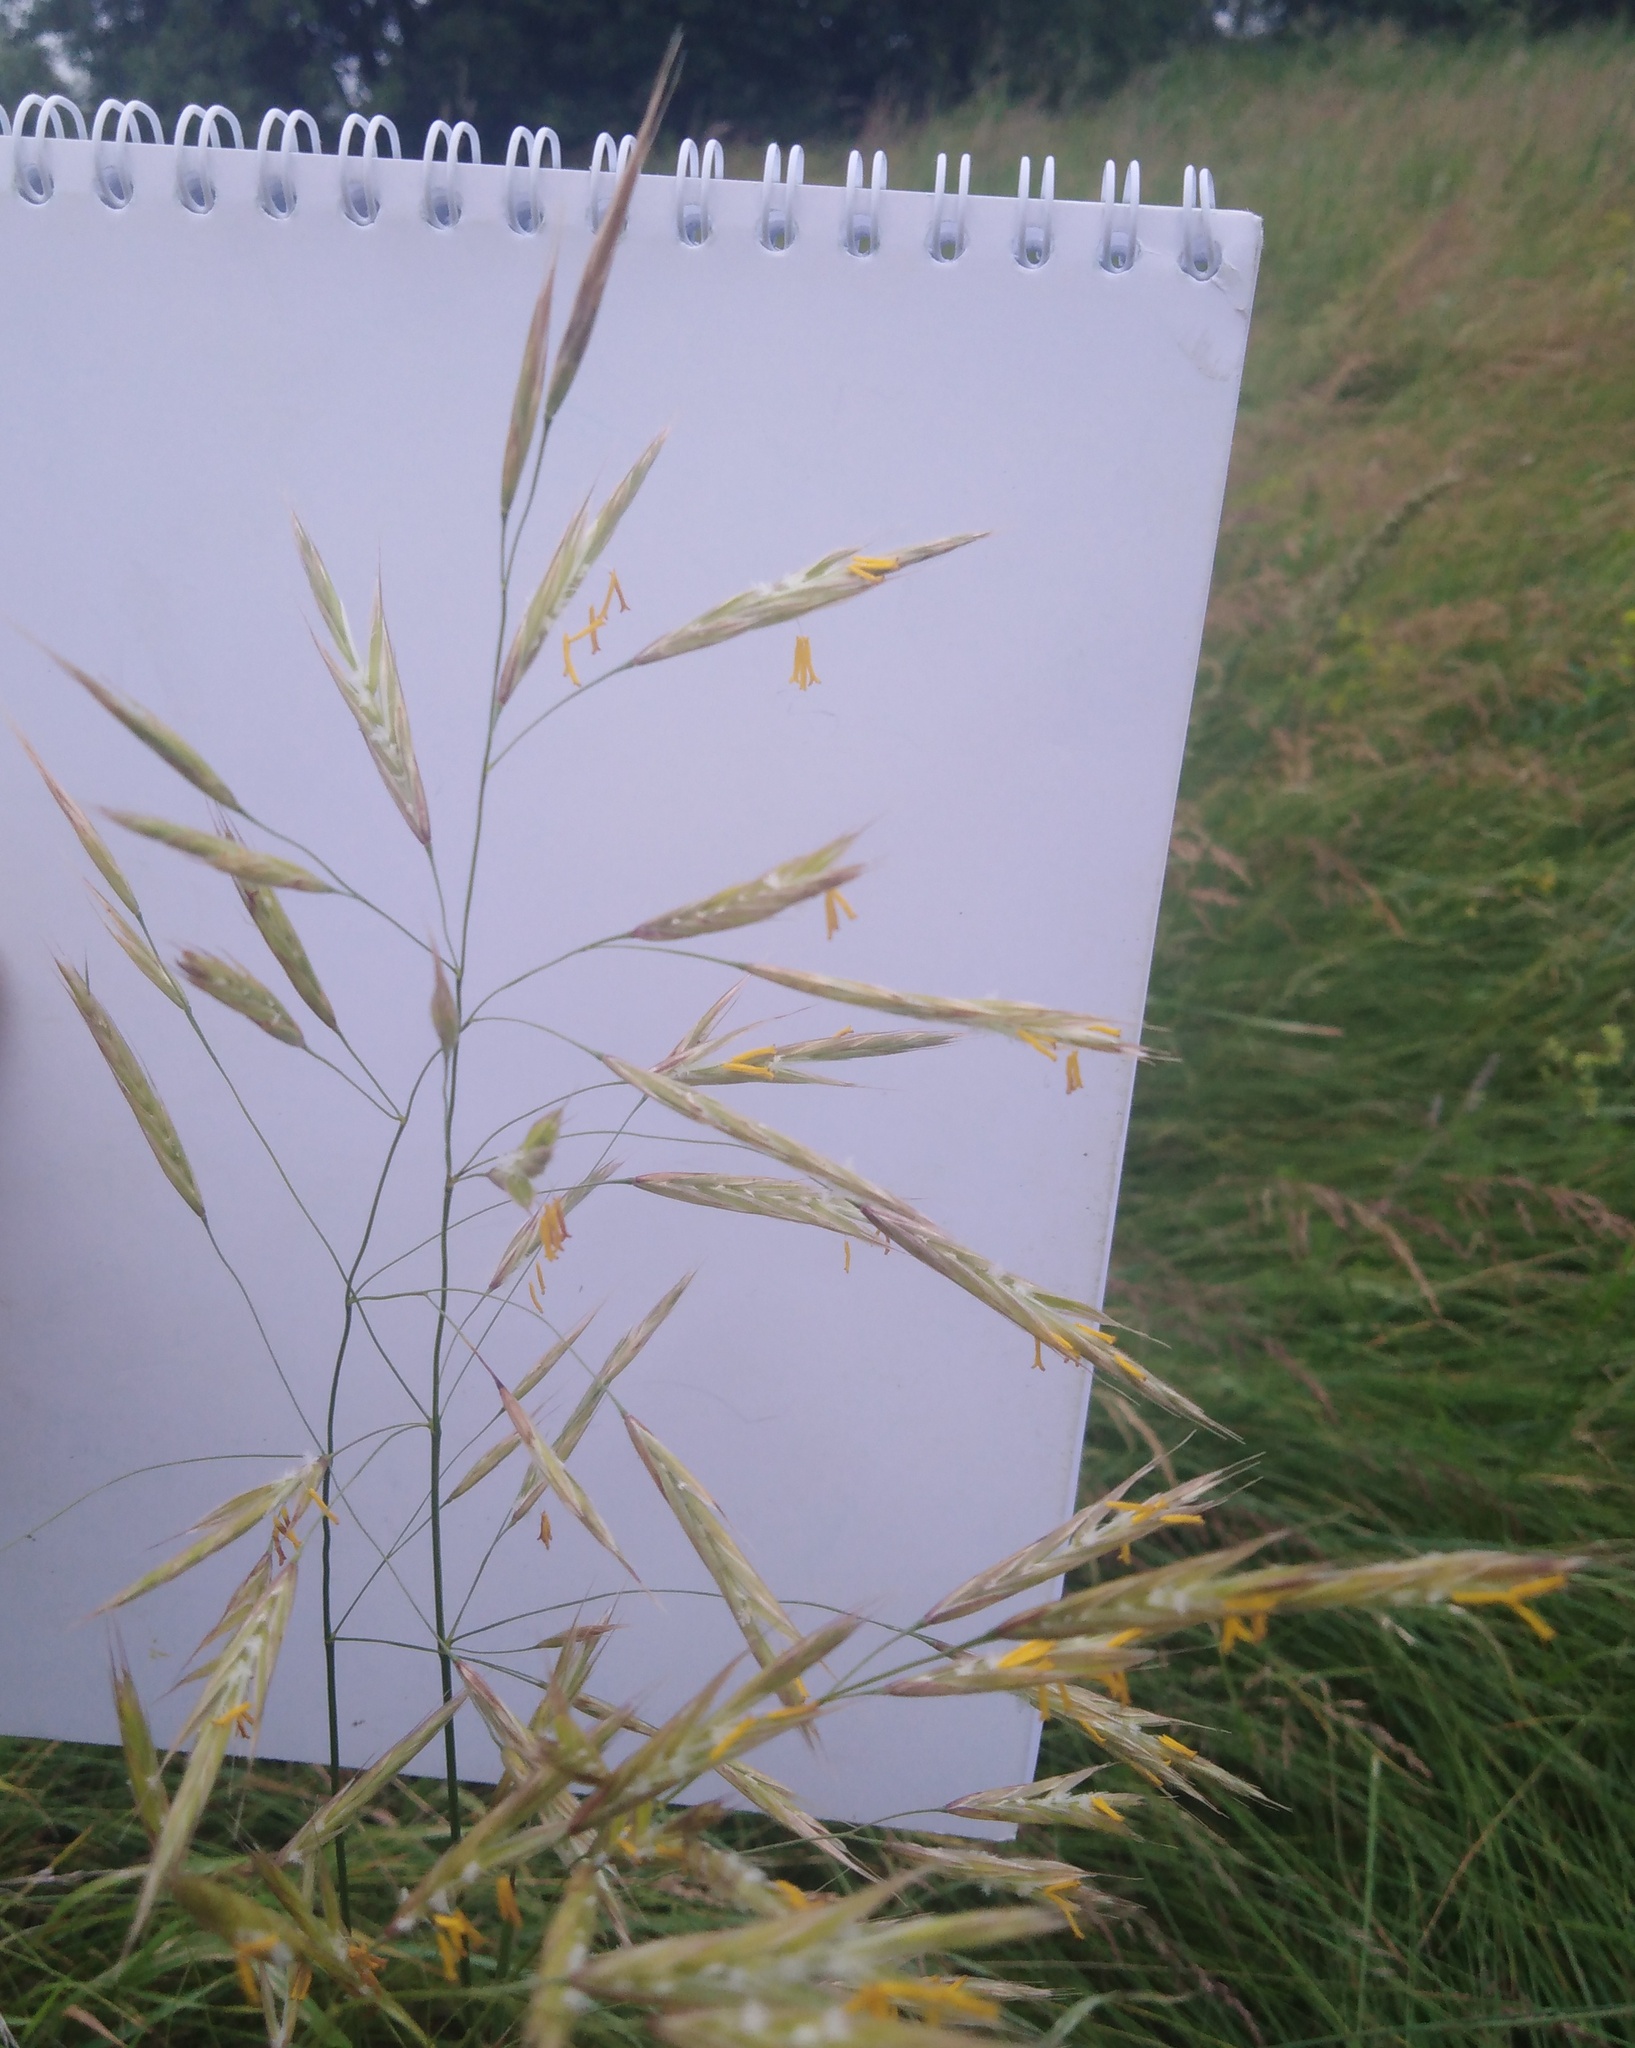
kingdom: Plantae
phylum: Tracheophyta
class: Liliopsida
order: Poales
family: Poaceae
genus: Bromus
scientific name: Bromus riparius
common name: Meadow brome
